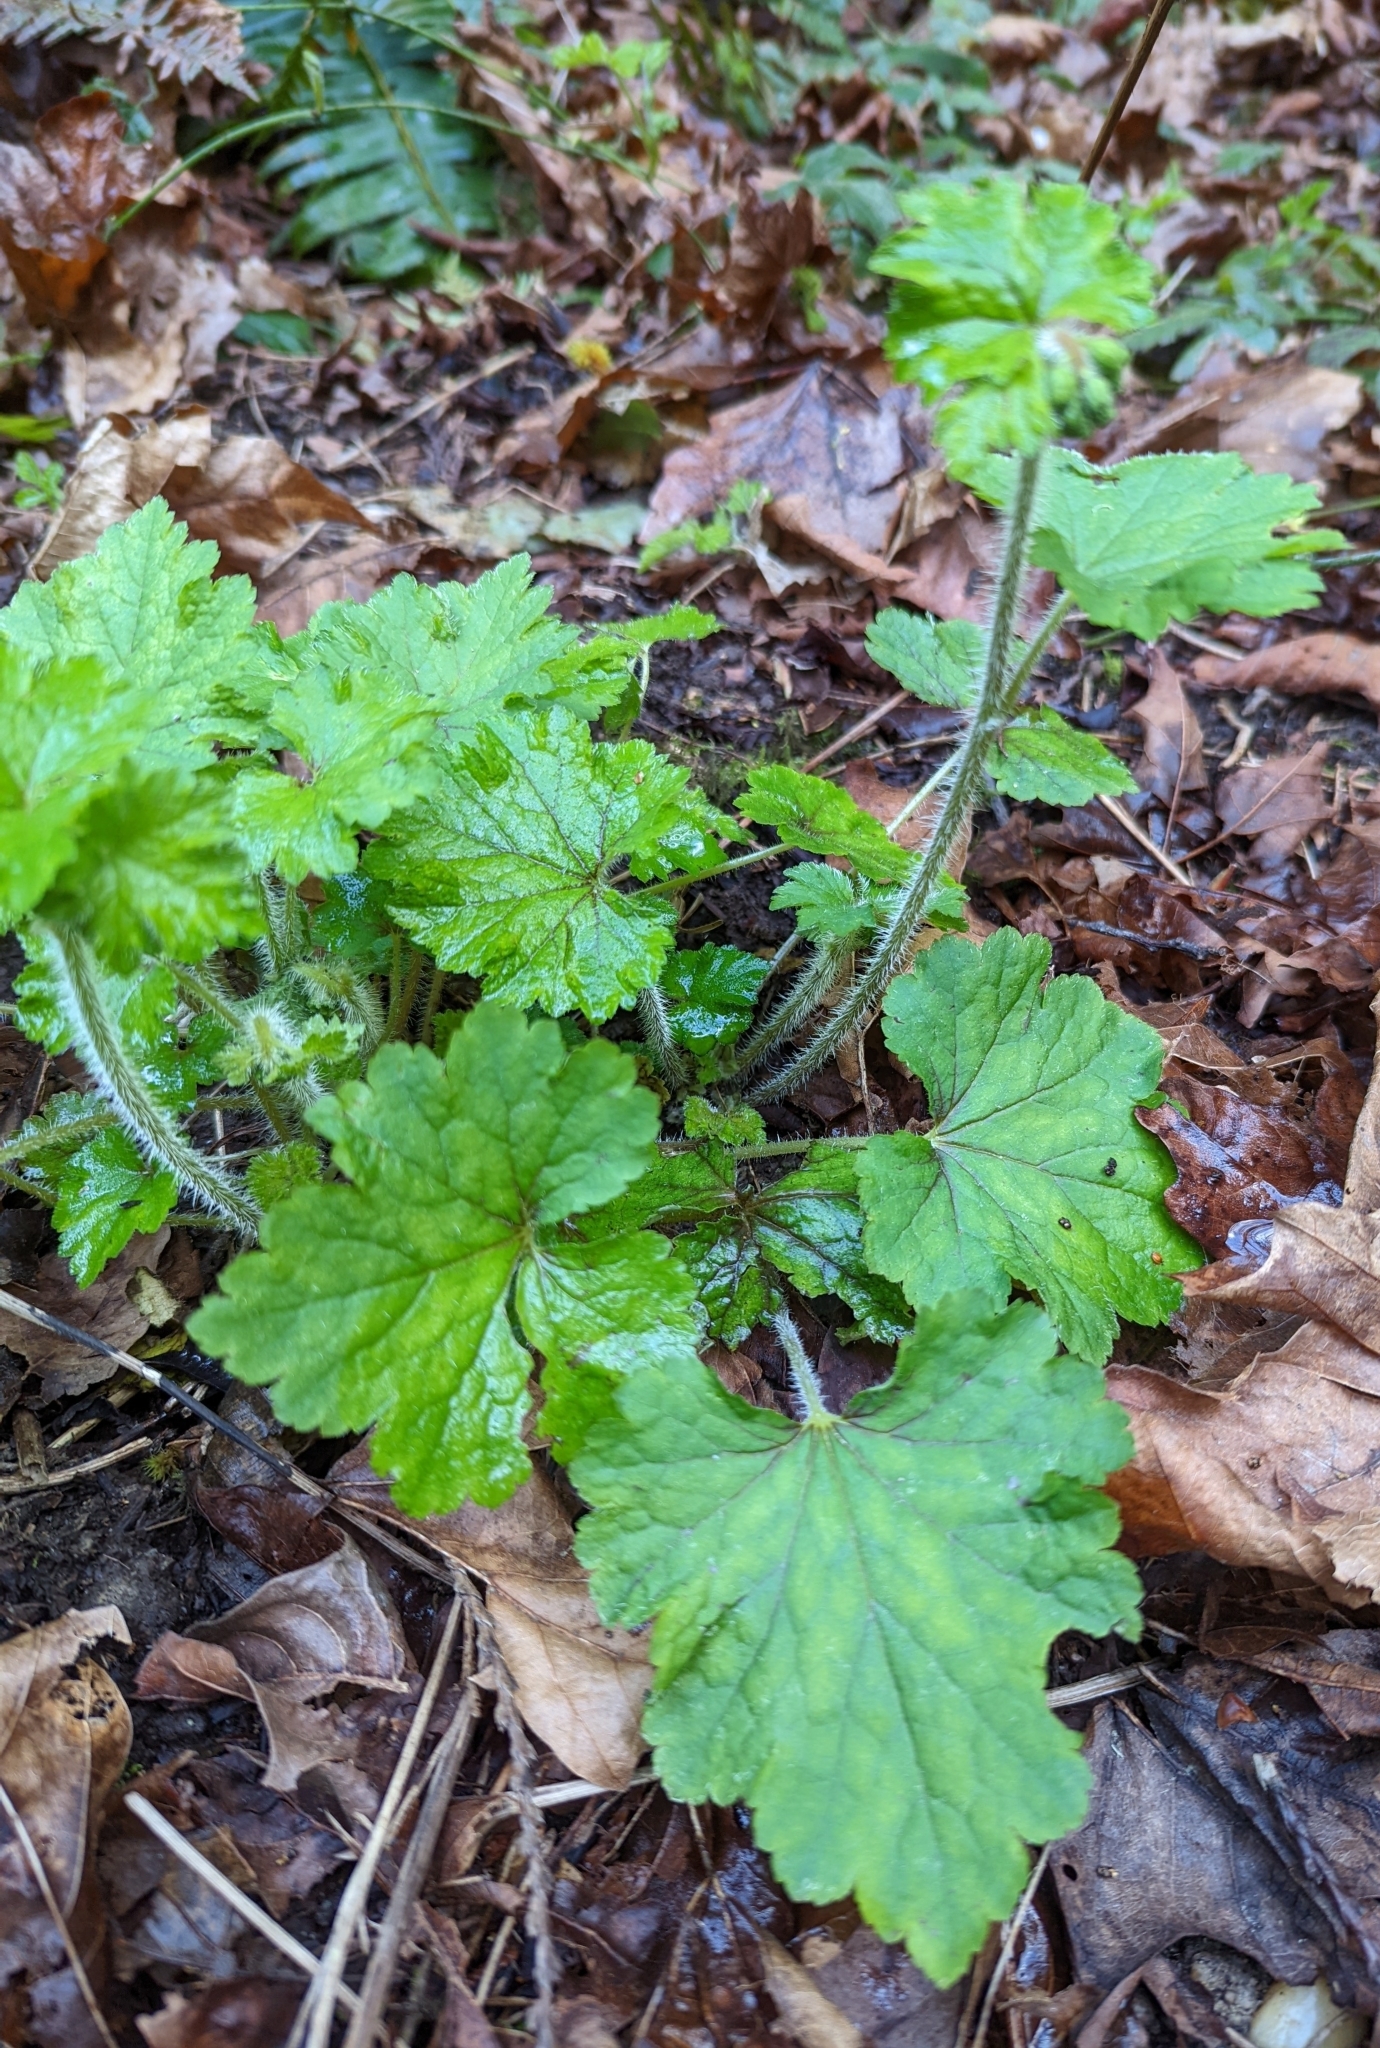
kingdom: Plantae
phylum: Tracheophyta
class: Magnoliopsida
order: Saxifragales
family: Saxifragaceae
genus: Tellima
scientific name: Tellima grandiflora
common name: Fringecups
